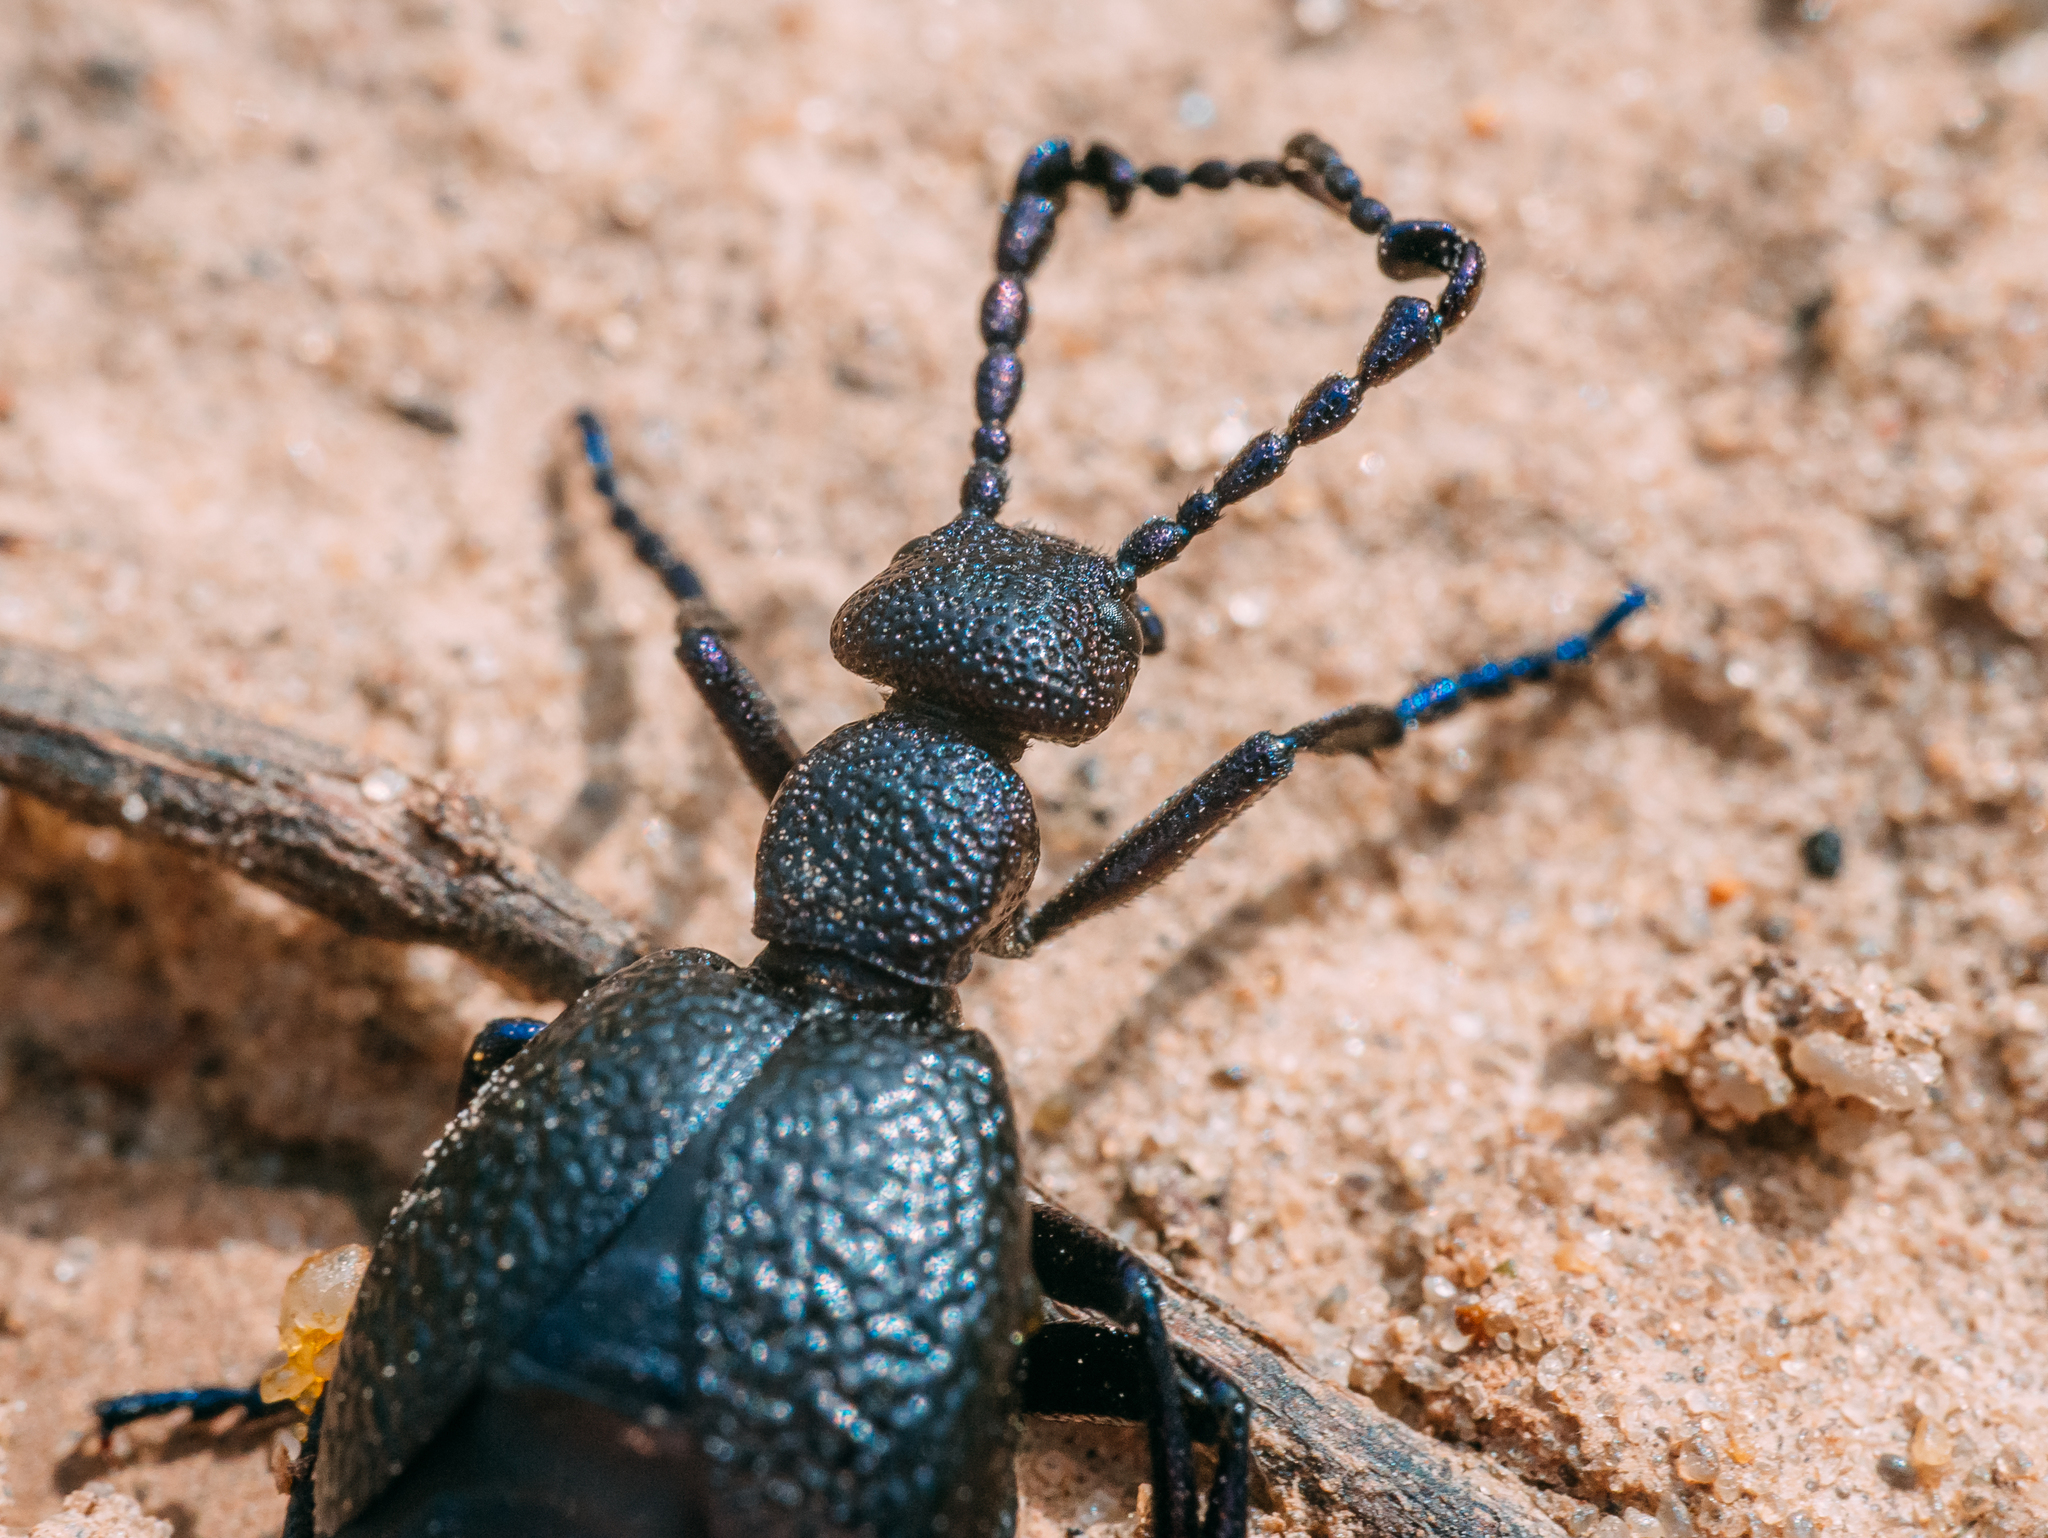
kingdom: Animalia
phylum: Arthropoda
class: Insecta
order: Coleoptera
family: Meloidae
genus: Meloe
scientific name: Meloe proscarabaeus
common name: Black oil-beetle
